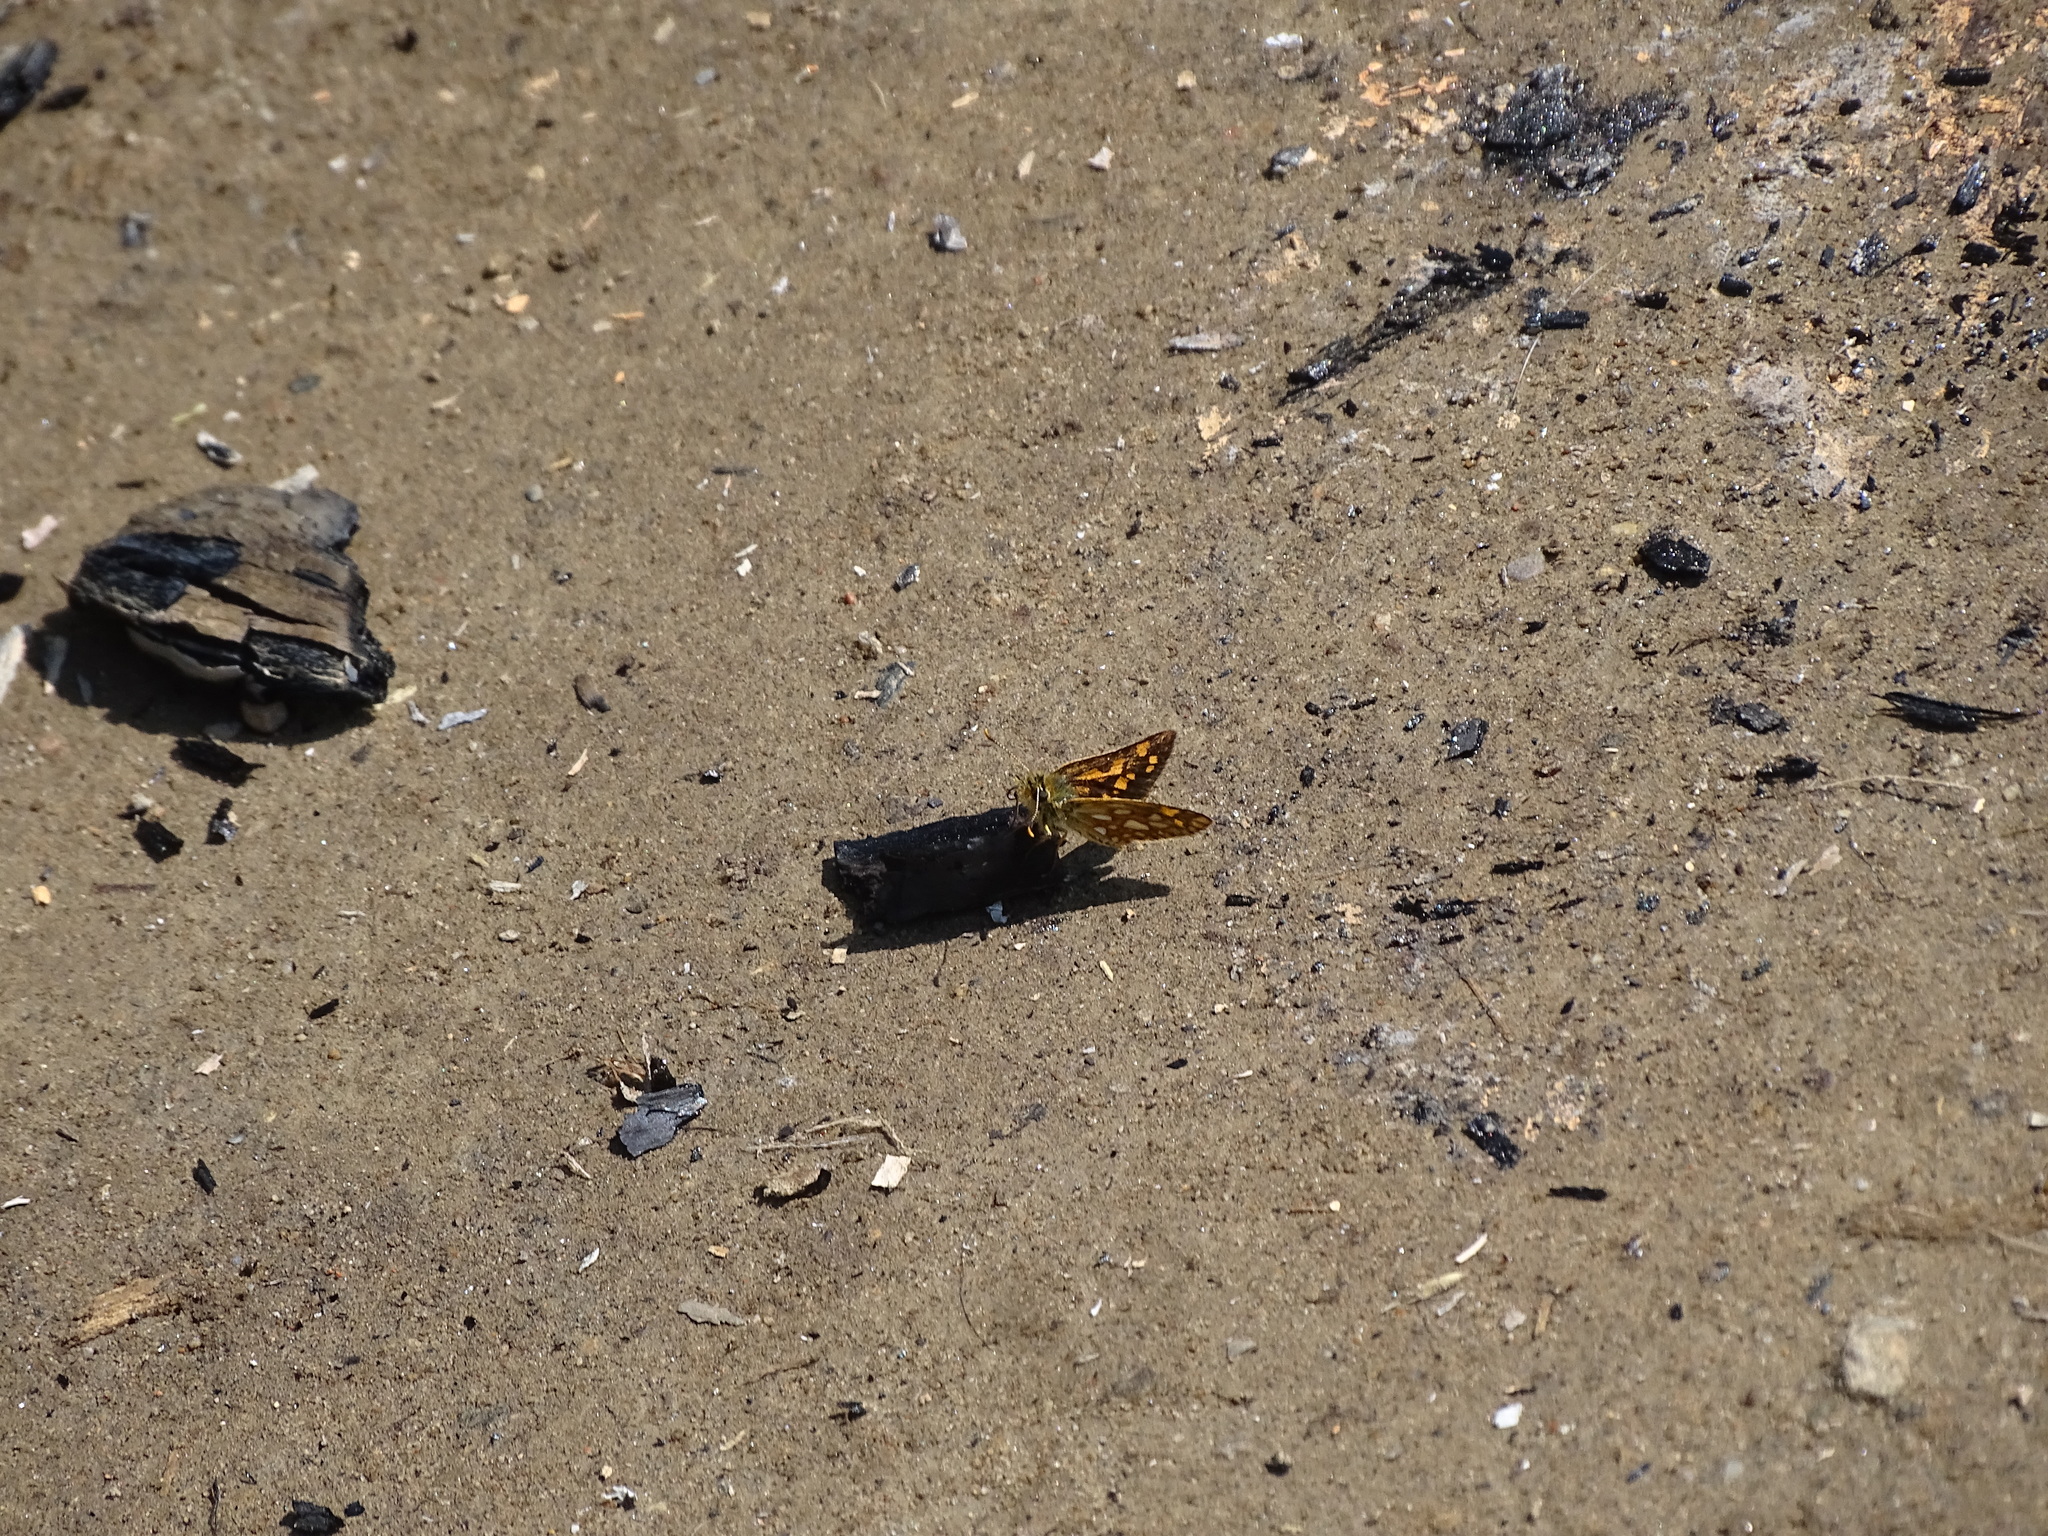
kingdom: Animalia
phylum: Arthropoda
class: Insecta
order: Lepidoptera
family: Hesperiidae
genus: Carterocephalus
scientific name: Carterocephalus mandan
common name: Arctic skipperling
